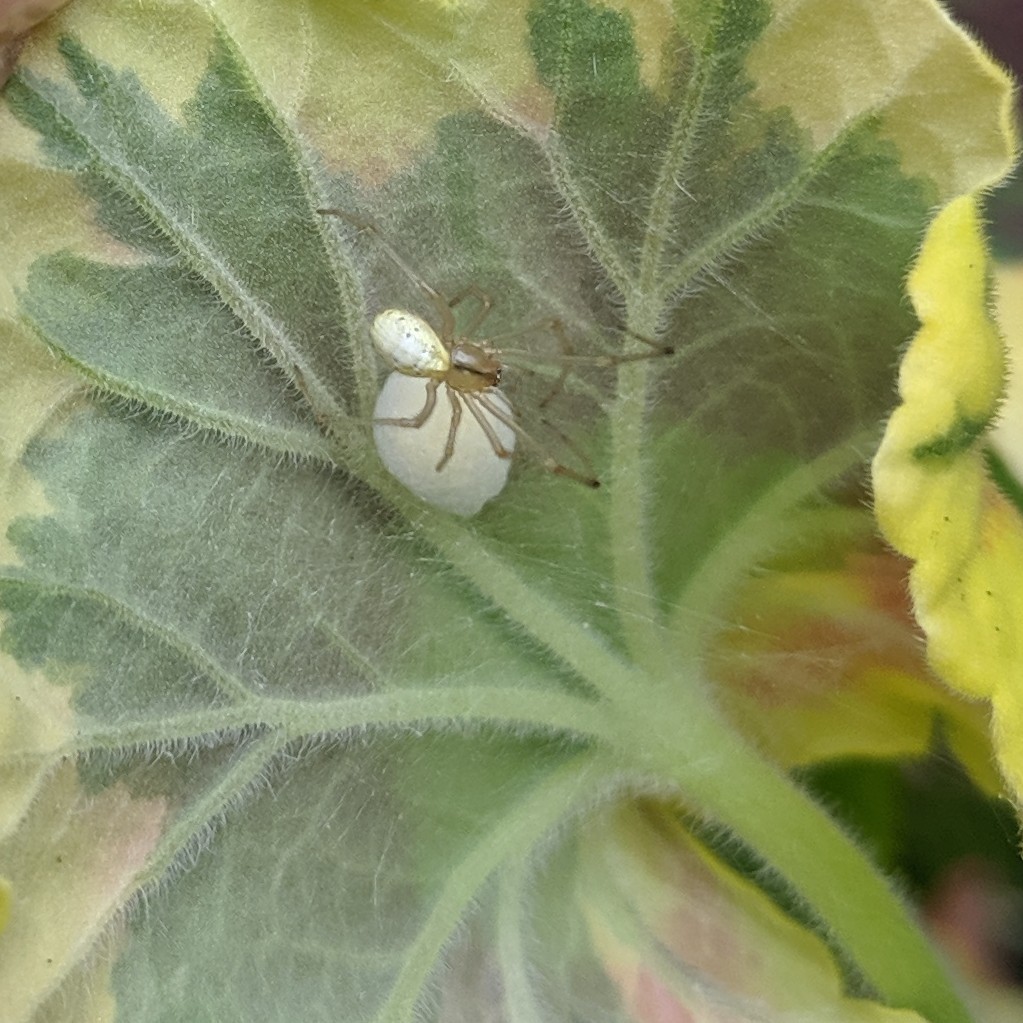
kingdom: Animalia
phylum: Arthropoda
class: Arachnida
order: Araneae
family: Theridiidae
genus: Enoplognatha
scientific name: Enoplognatha ovata
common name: Common candy-striped spider
